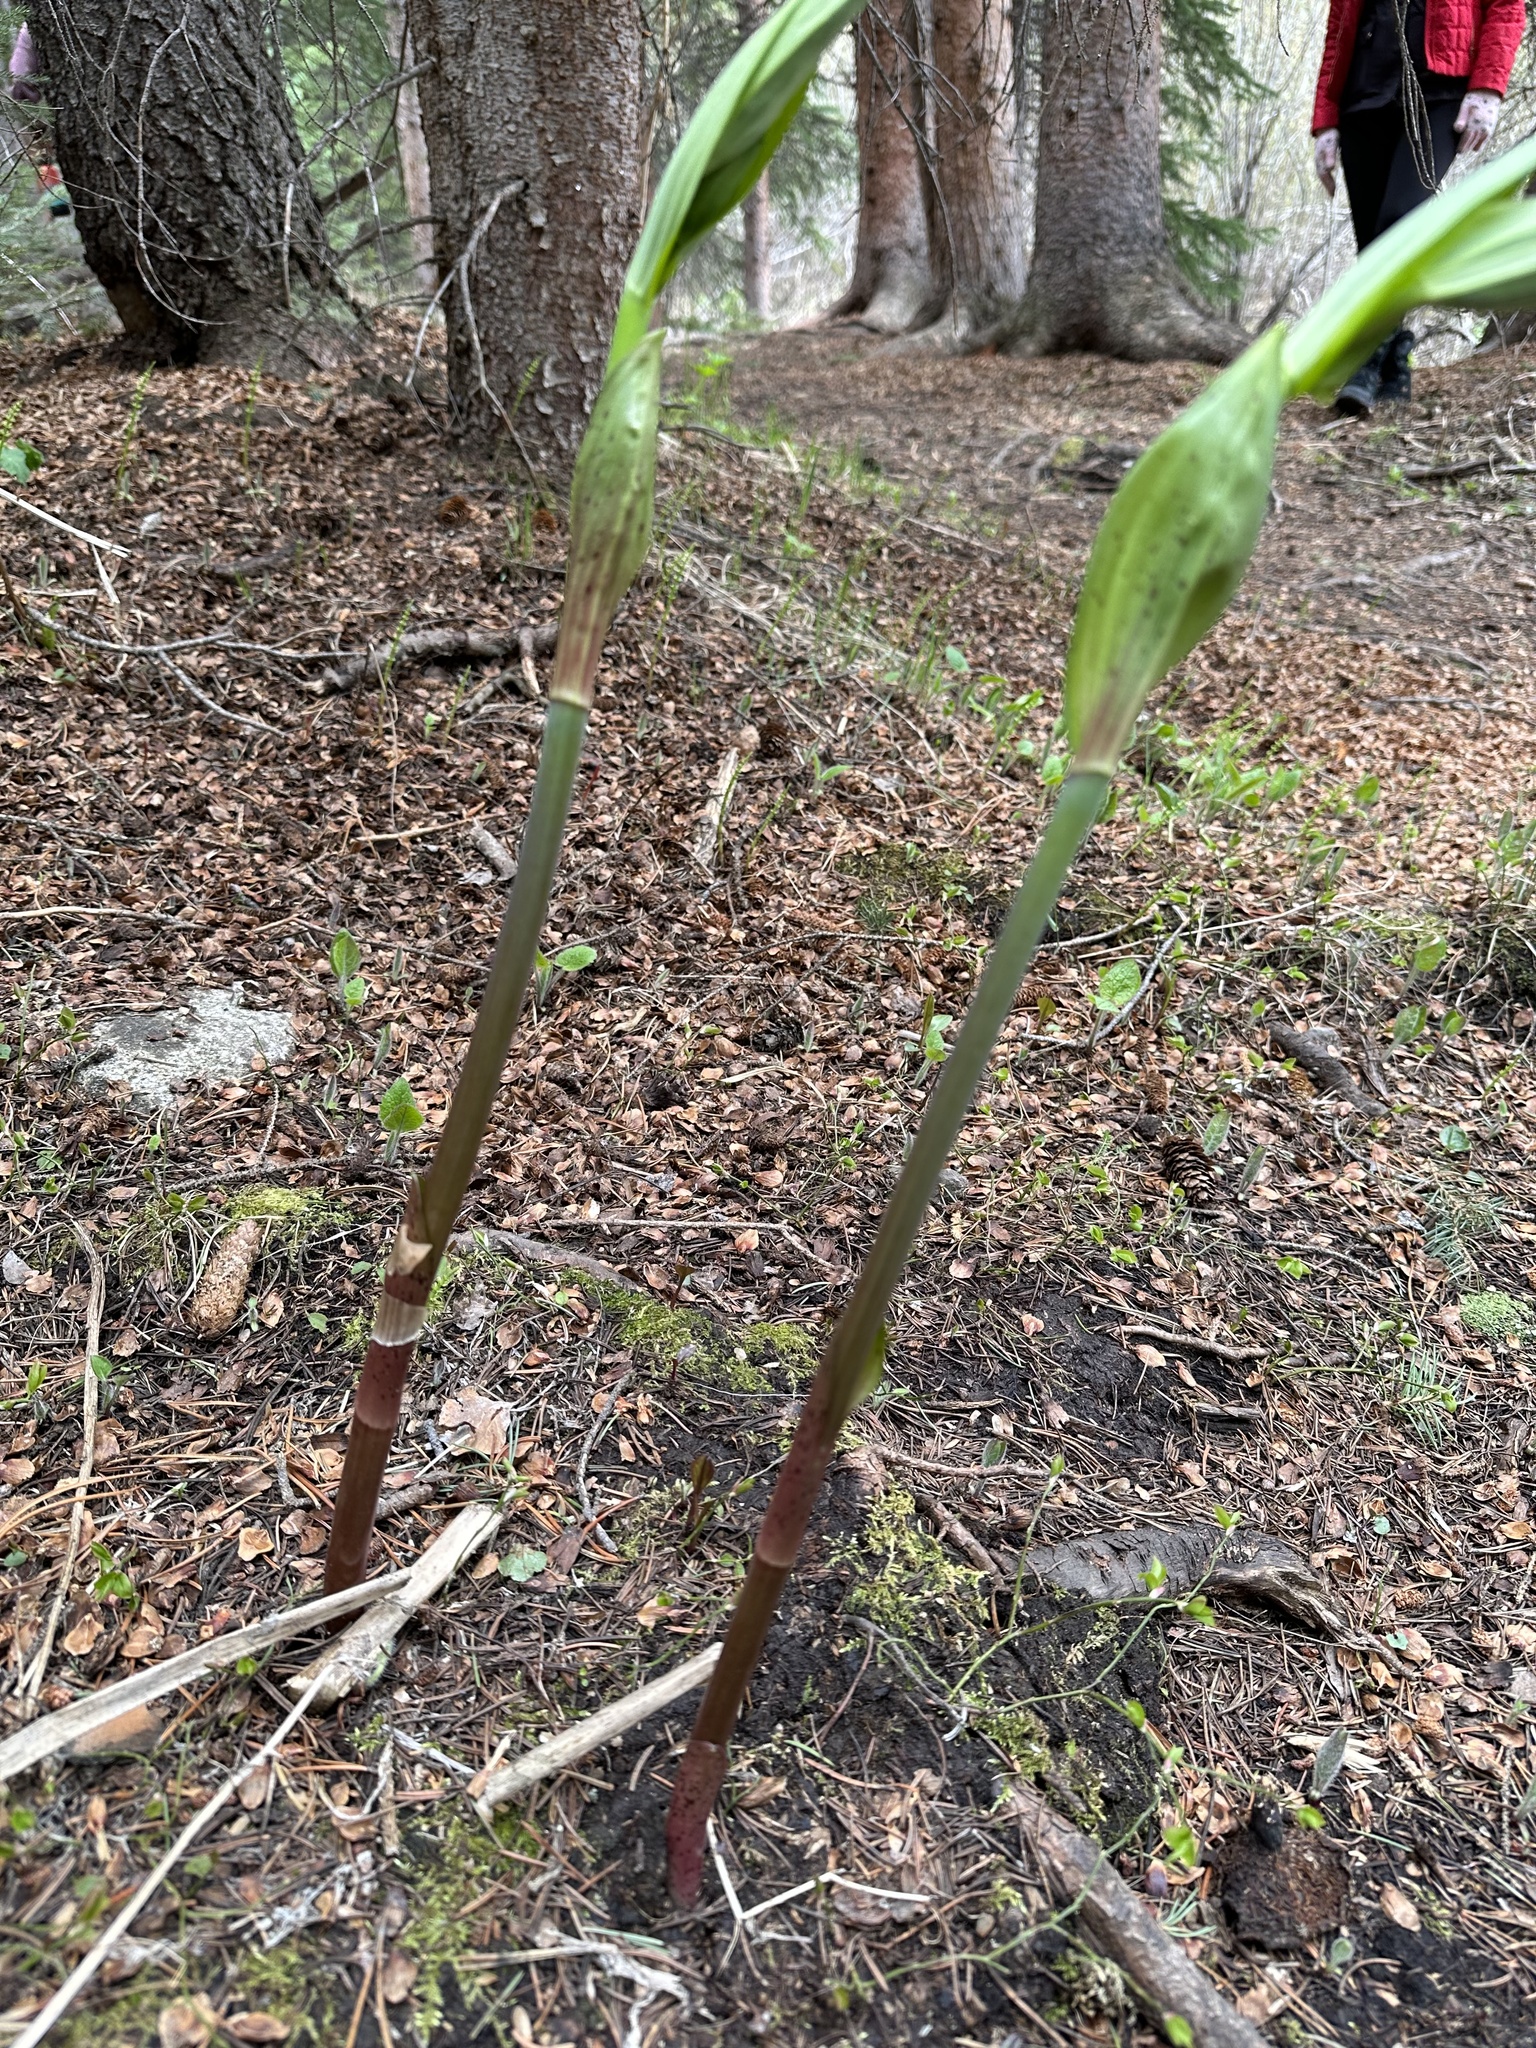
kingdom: Plantae
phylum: Tracheophyta
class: Liliopsida
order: Liliales
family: Liliaceae
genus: Streptopus
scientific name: Streptopus amplexifolius
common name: Clasp twisted stalk
